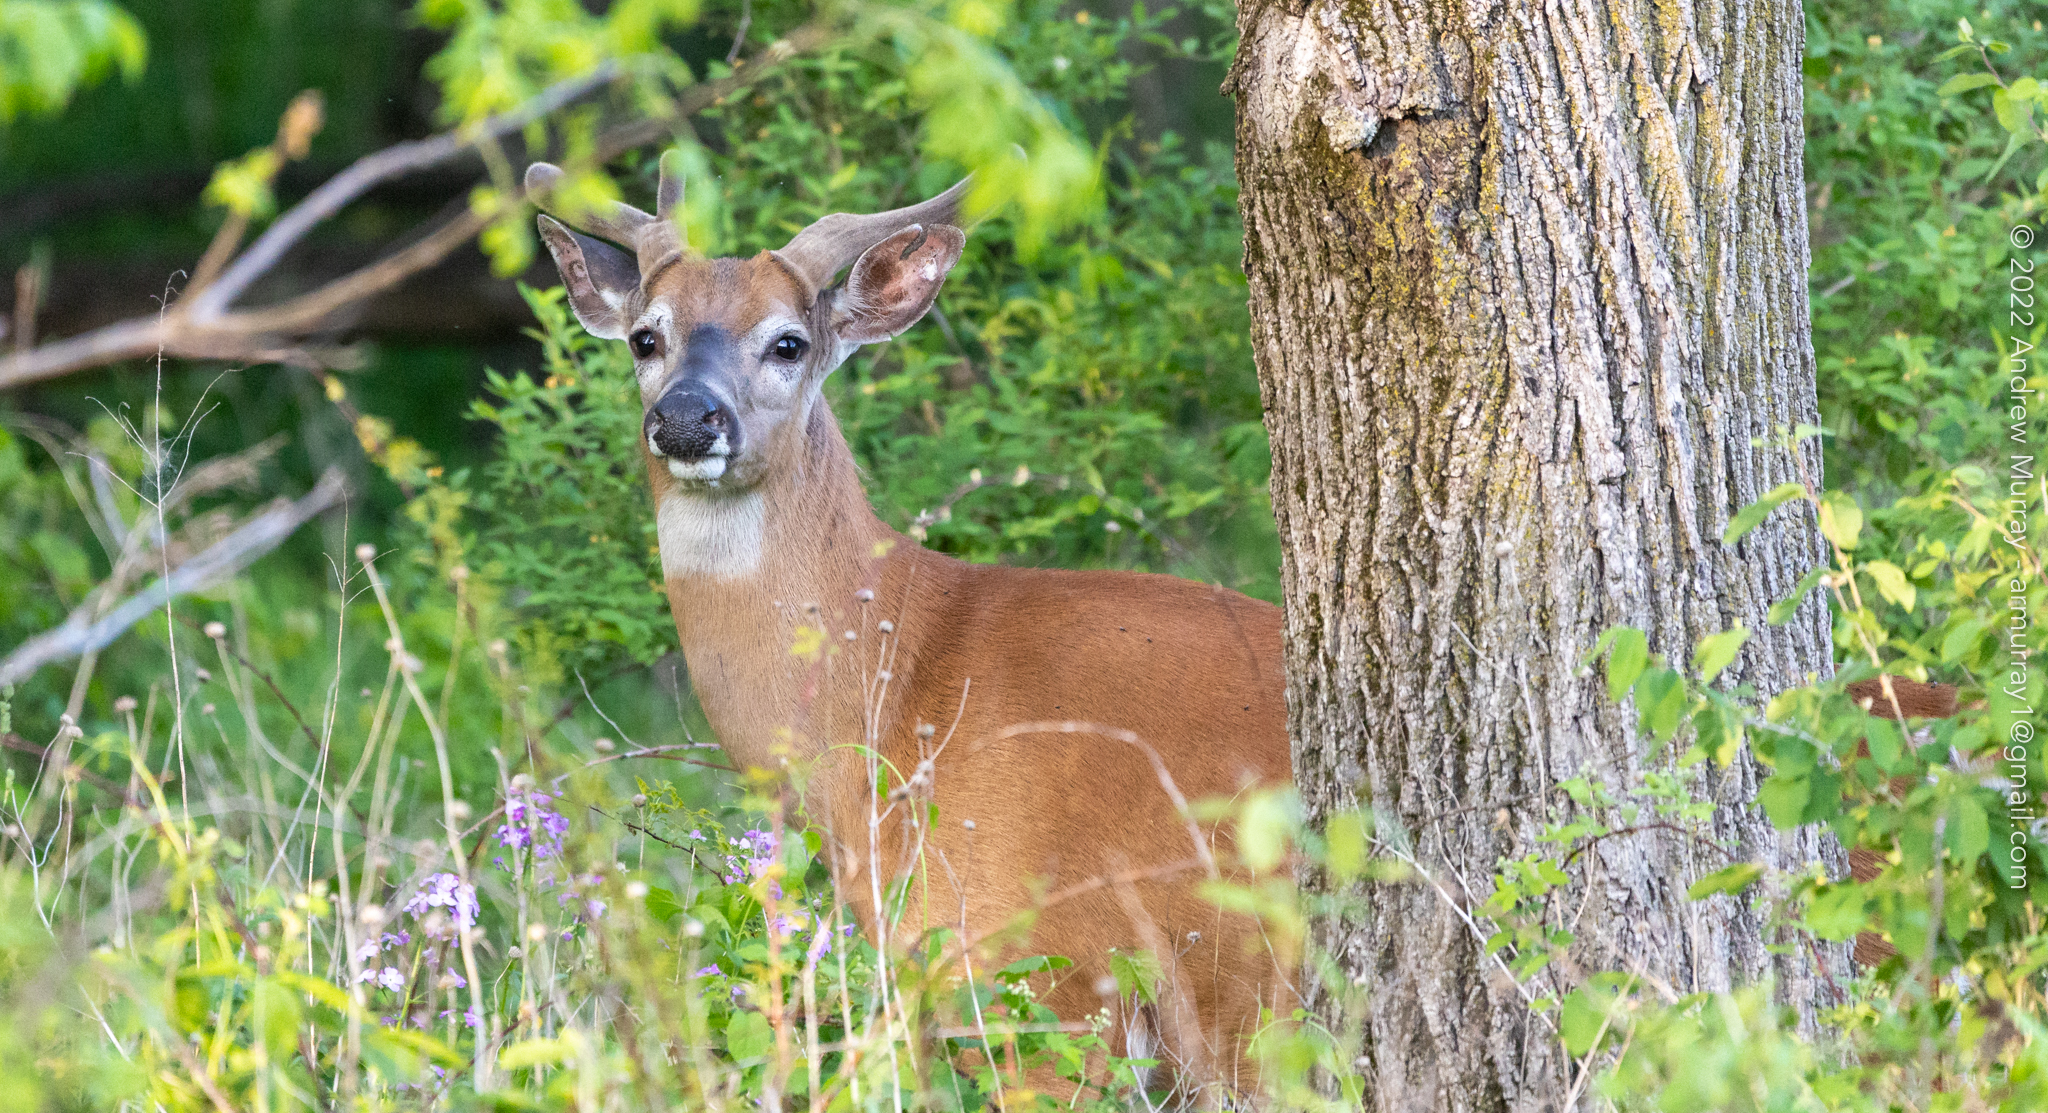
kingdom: Animalia
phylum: Chordata
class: Mammalia
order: Artiodactyla
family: Cervidae
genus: Odocoileus
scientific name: Odocoileus virginianus
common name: White-tailed deer
